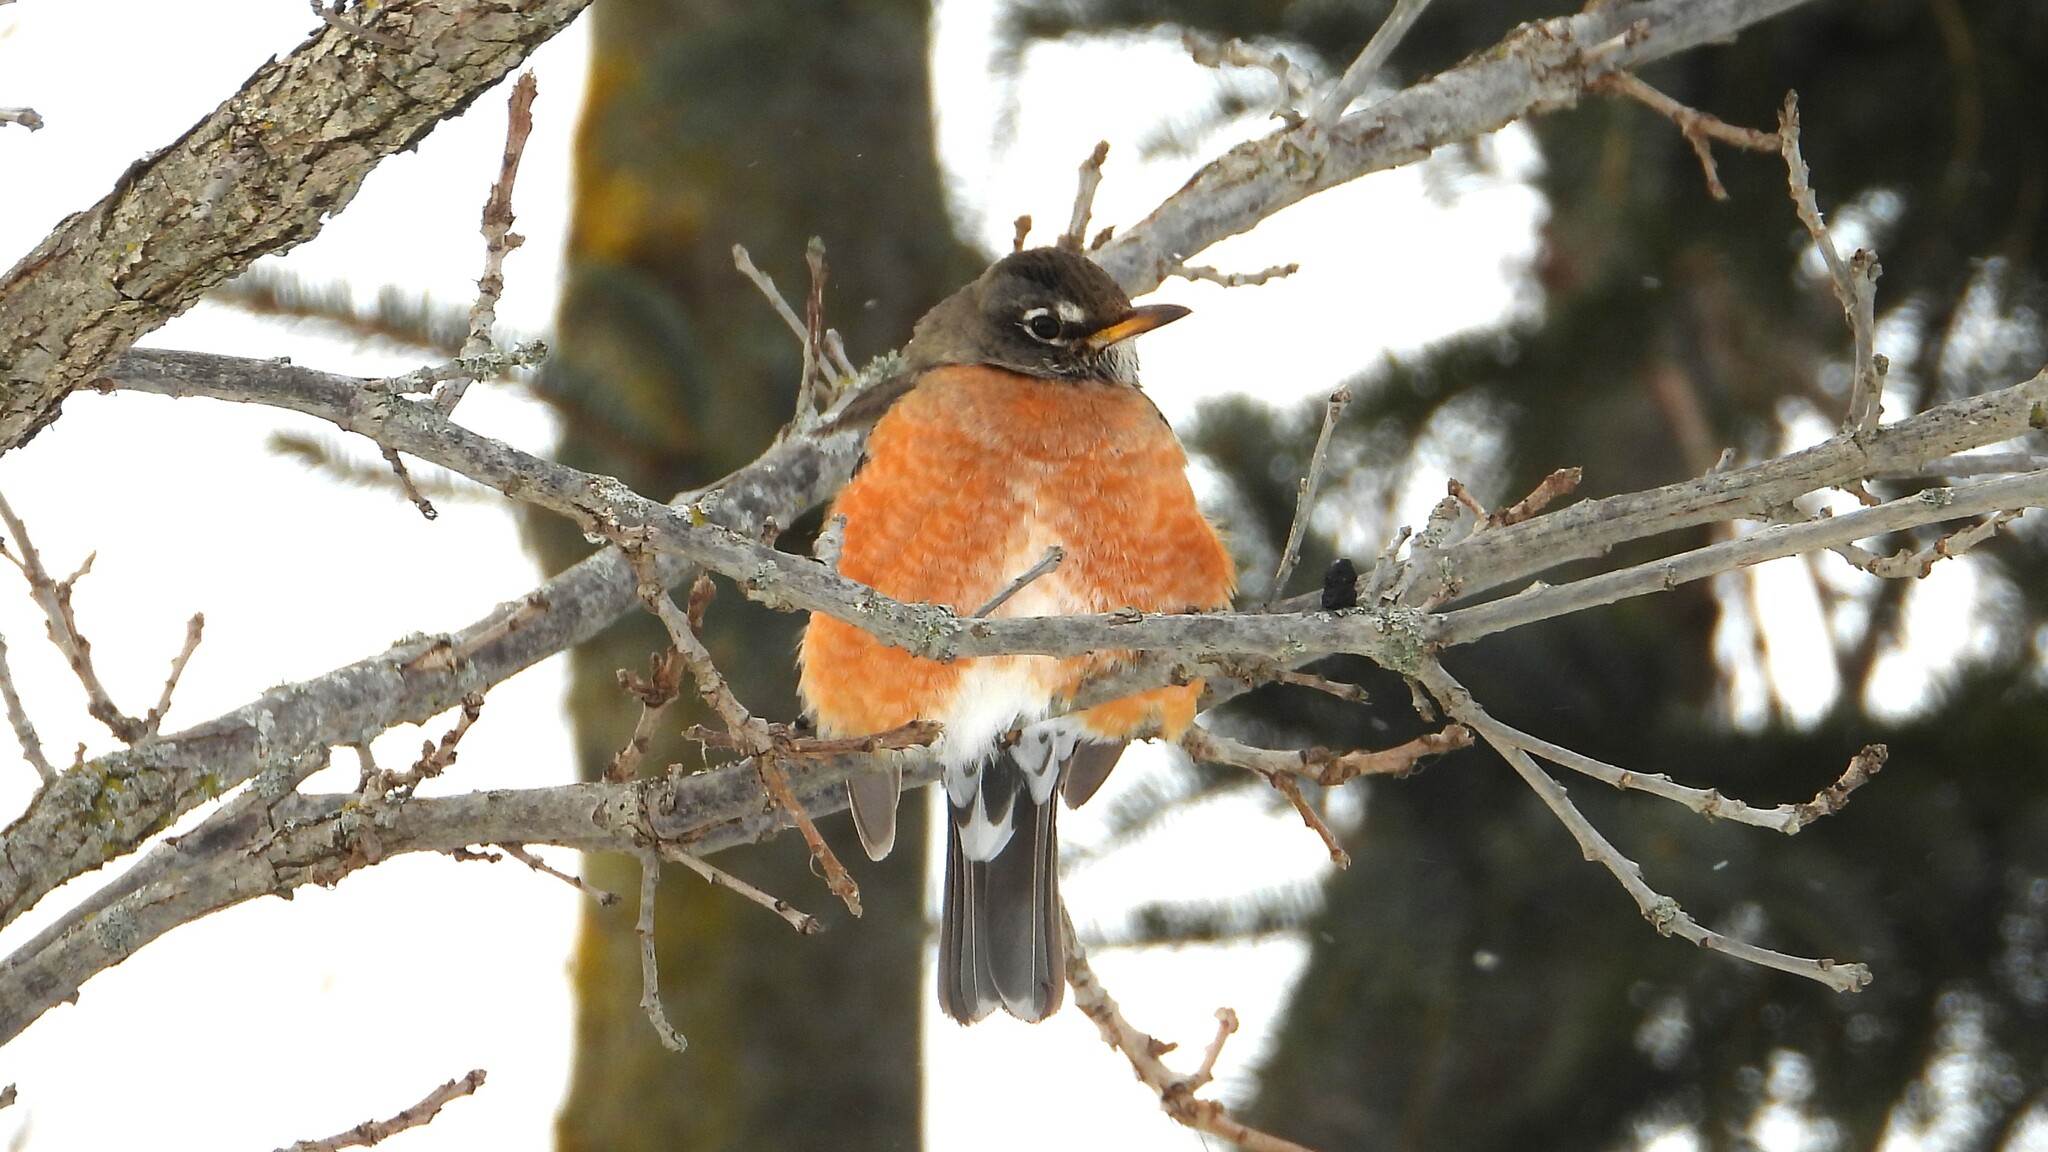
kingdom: Animalia
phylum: Chordata
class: Aves
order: Passeriformes
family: Turdidae
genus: Turdus
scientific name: Turdus migratorius
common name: American robin
